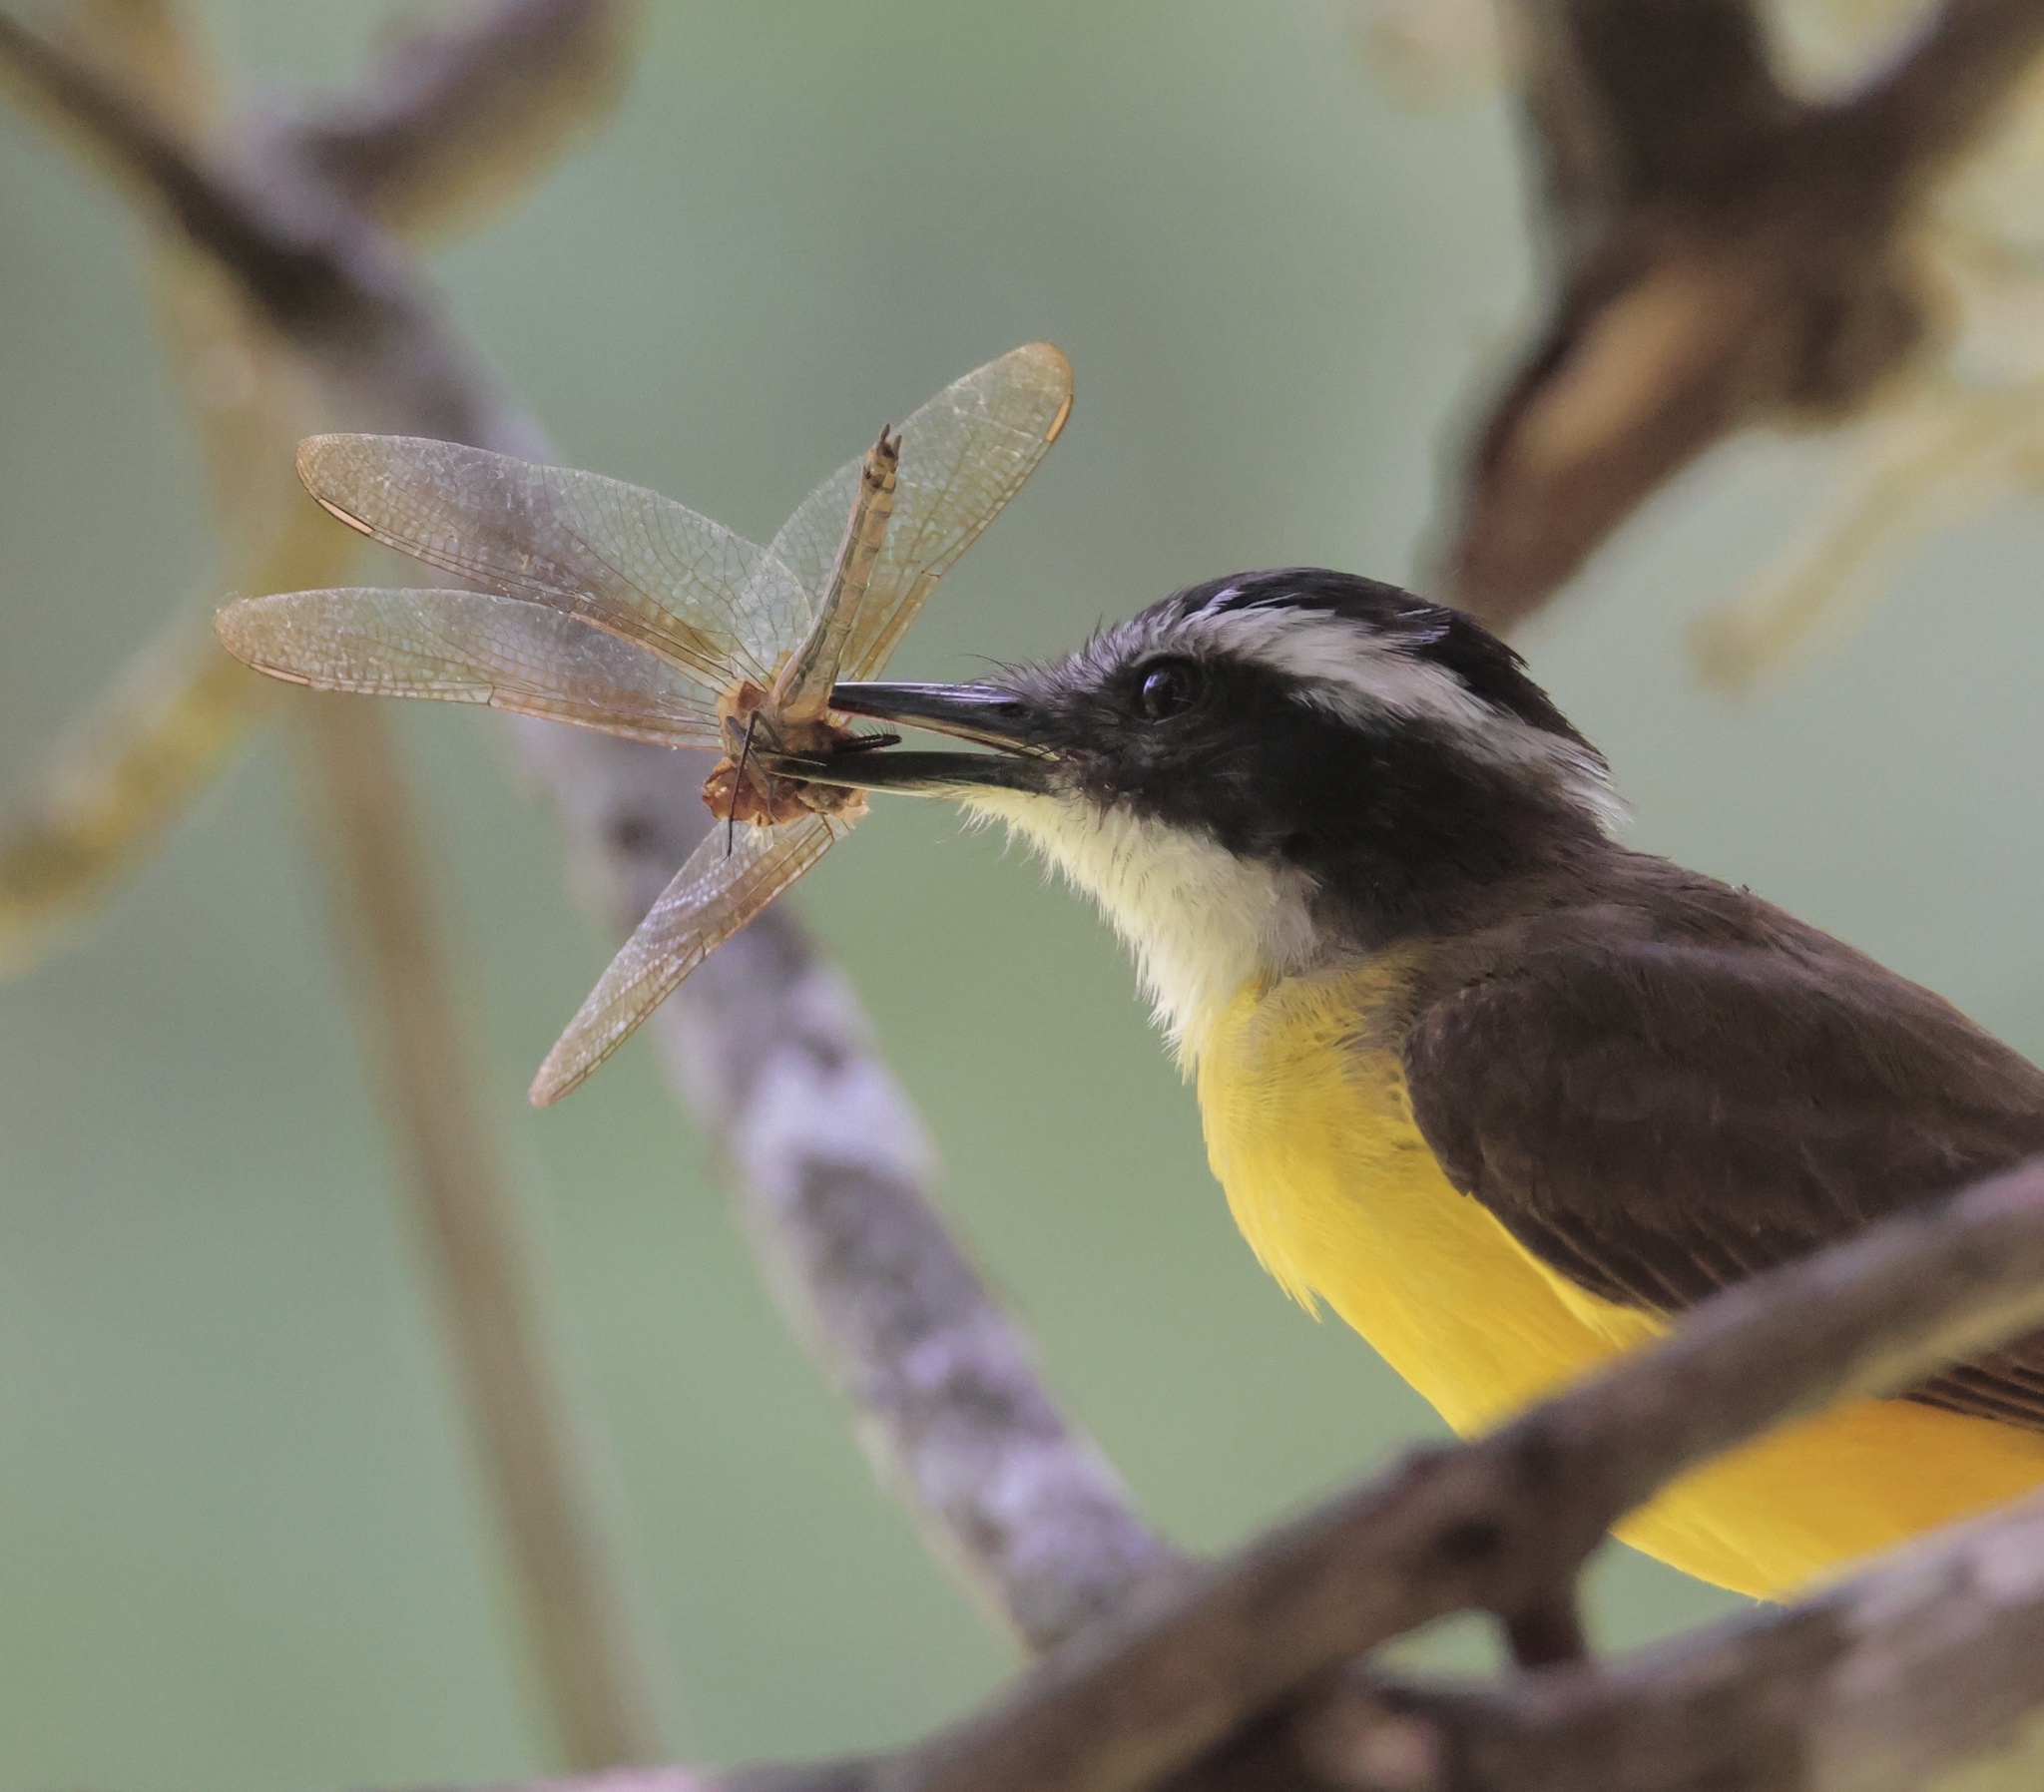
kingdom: Animalia
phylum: Chordata
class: Aves
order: Passeriformes
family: Tyrannidae
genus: Pitangus
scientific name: Pitangus lictor
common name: Lesser kiskadee
